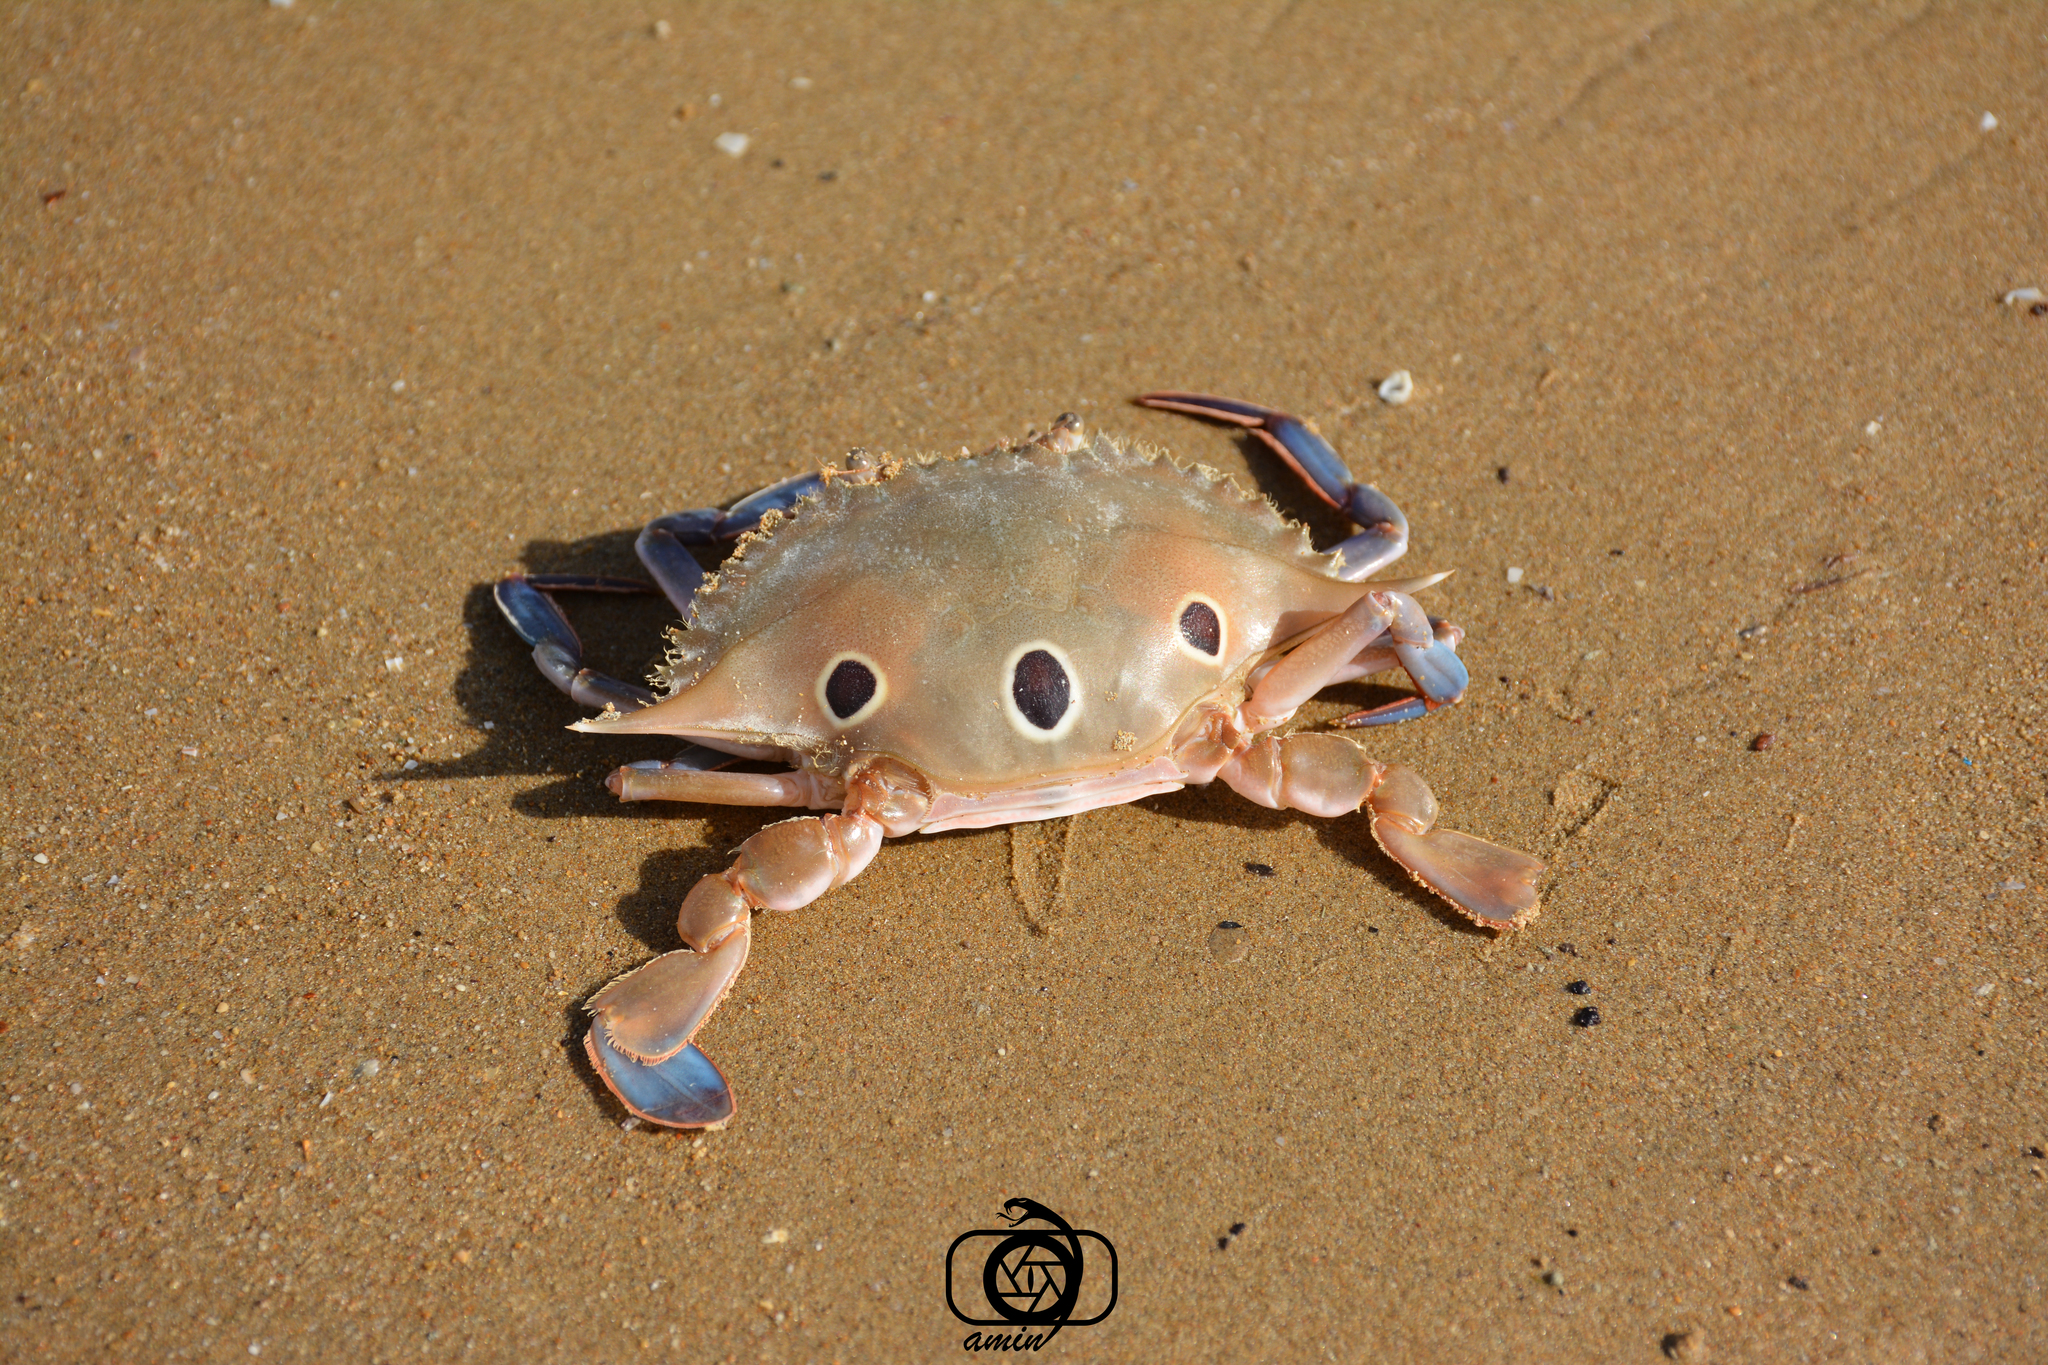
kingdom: Animalia
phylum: Arthropoda
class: Malacostraca
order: Decapoda
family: Portunidae
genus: Portunus
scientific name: Portunus sanguinolentus
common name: Blood-spotted swimming crab
